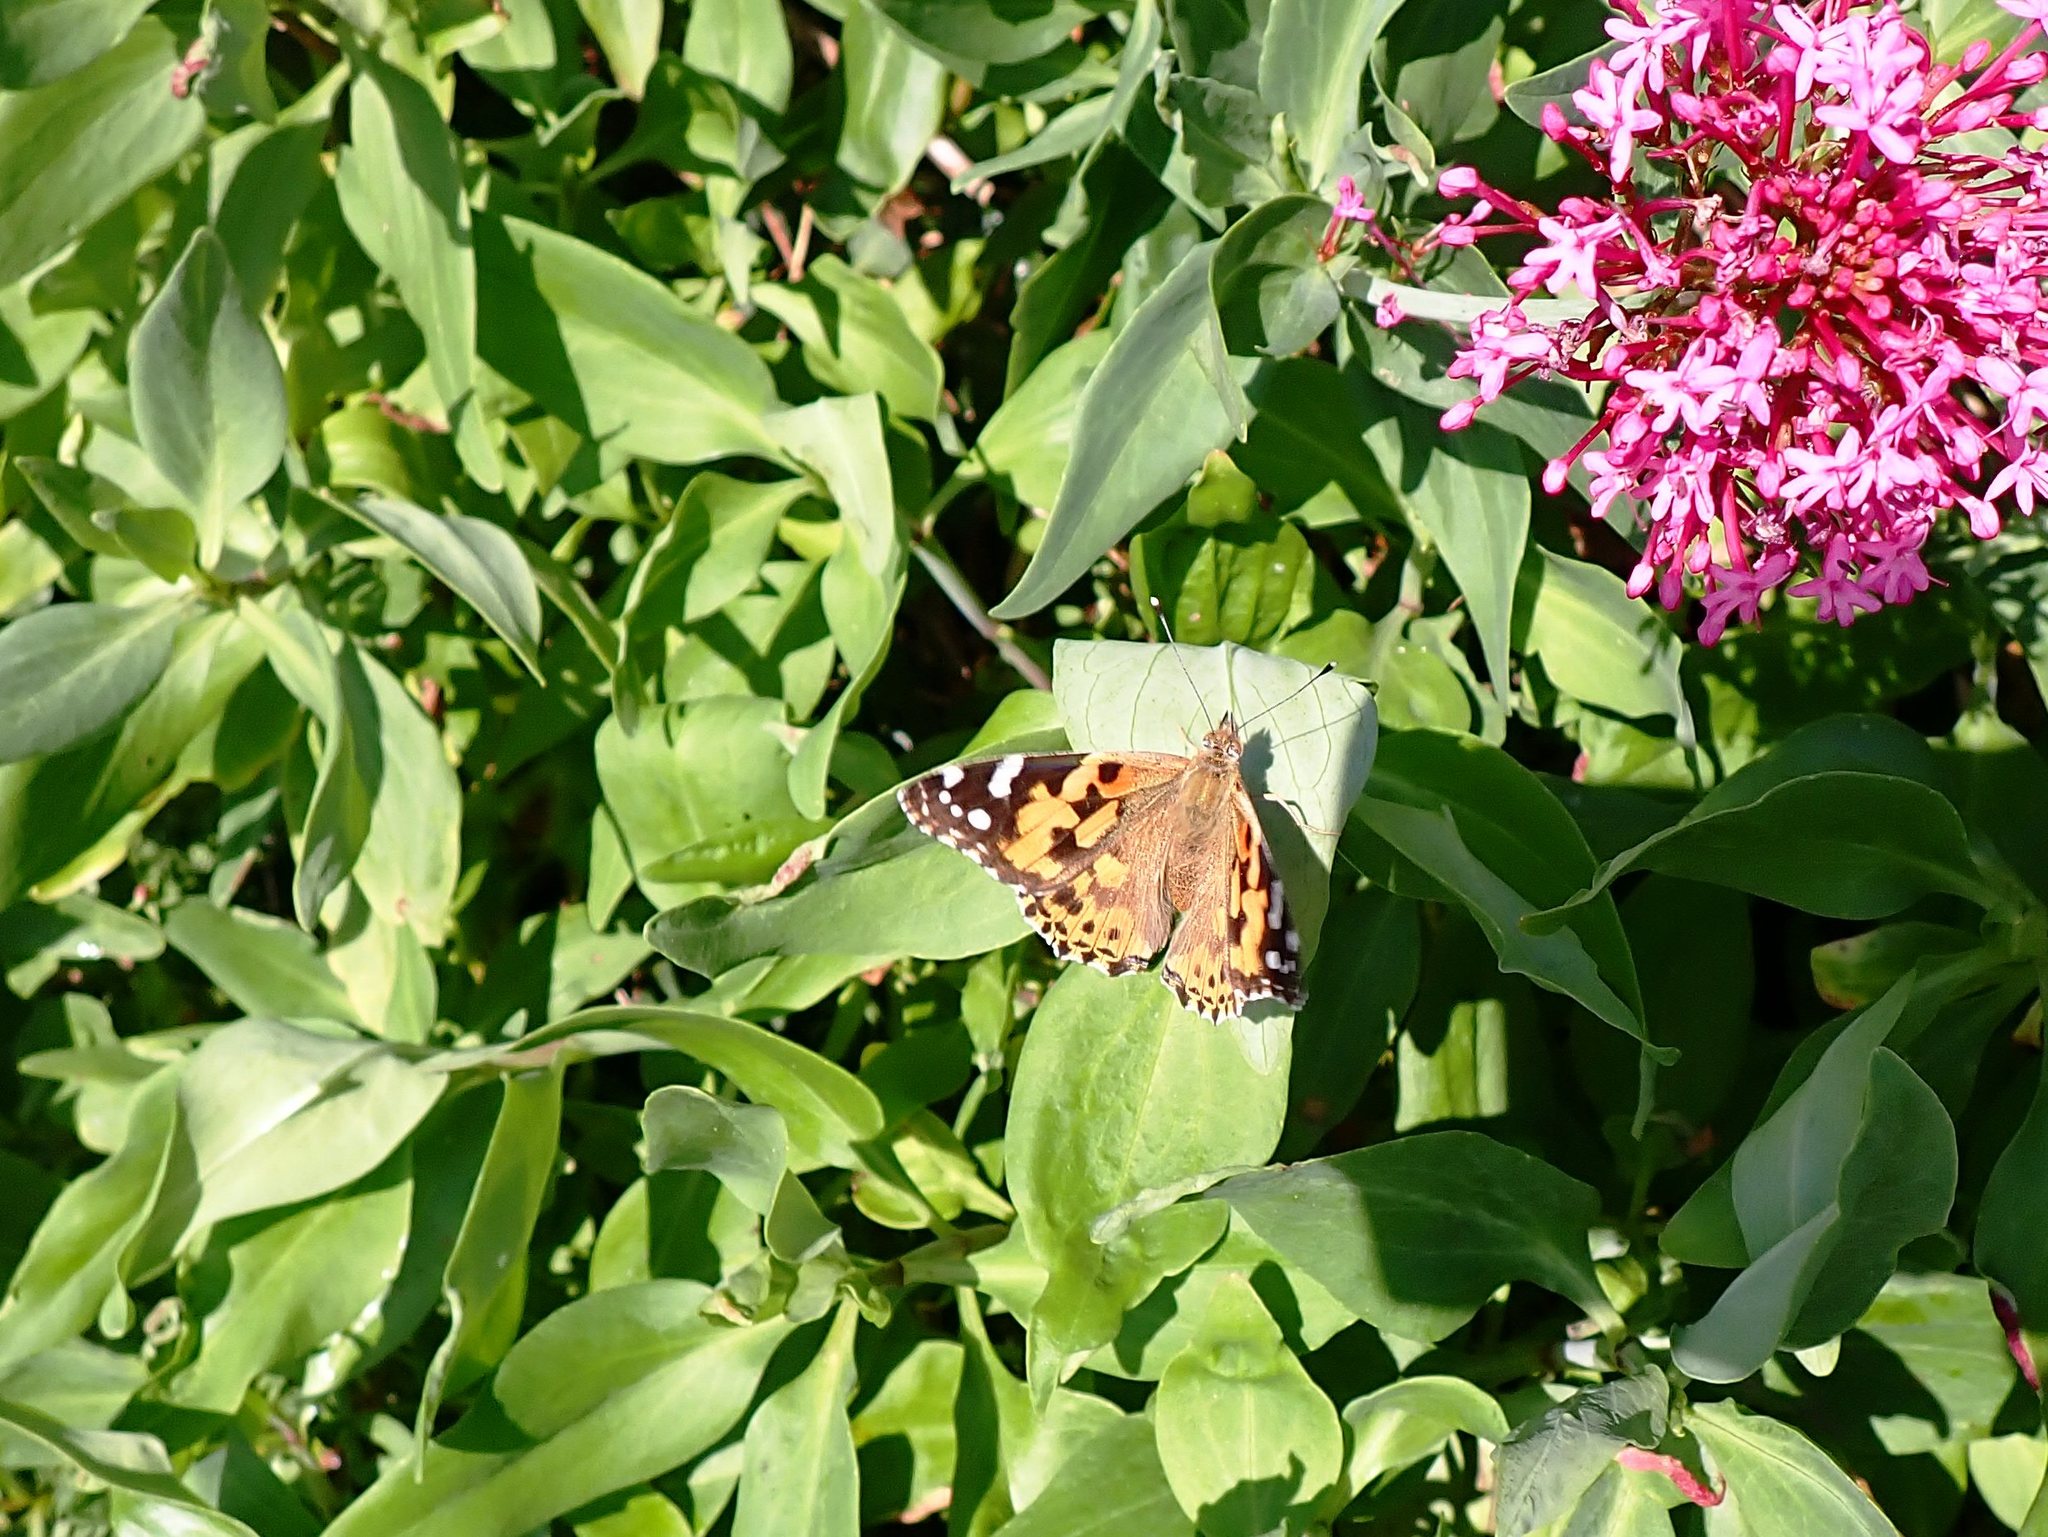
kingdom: Animalia
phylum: Arthropoda
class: Insecta
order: Lepidoptera
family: Nymphalidae
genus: Vanessa
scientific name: Vanessa cardui
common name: Painted lady
